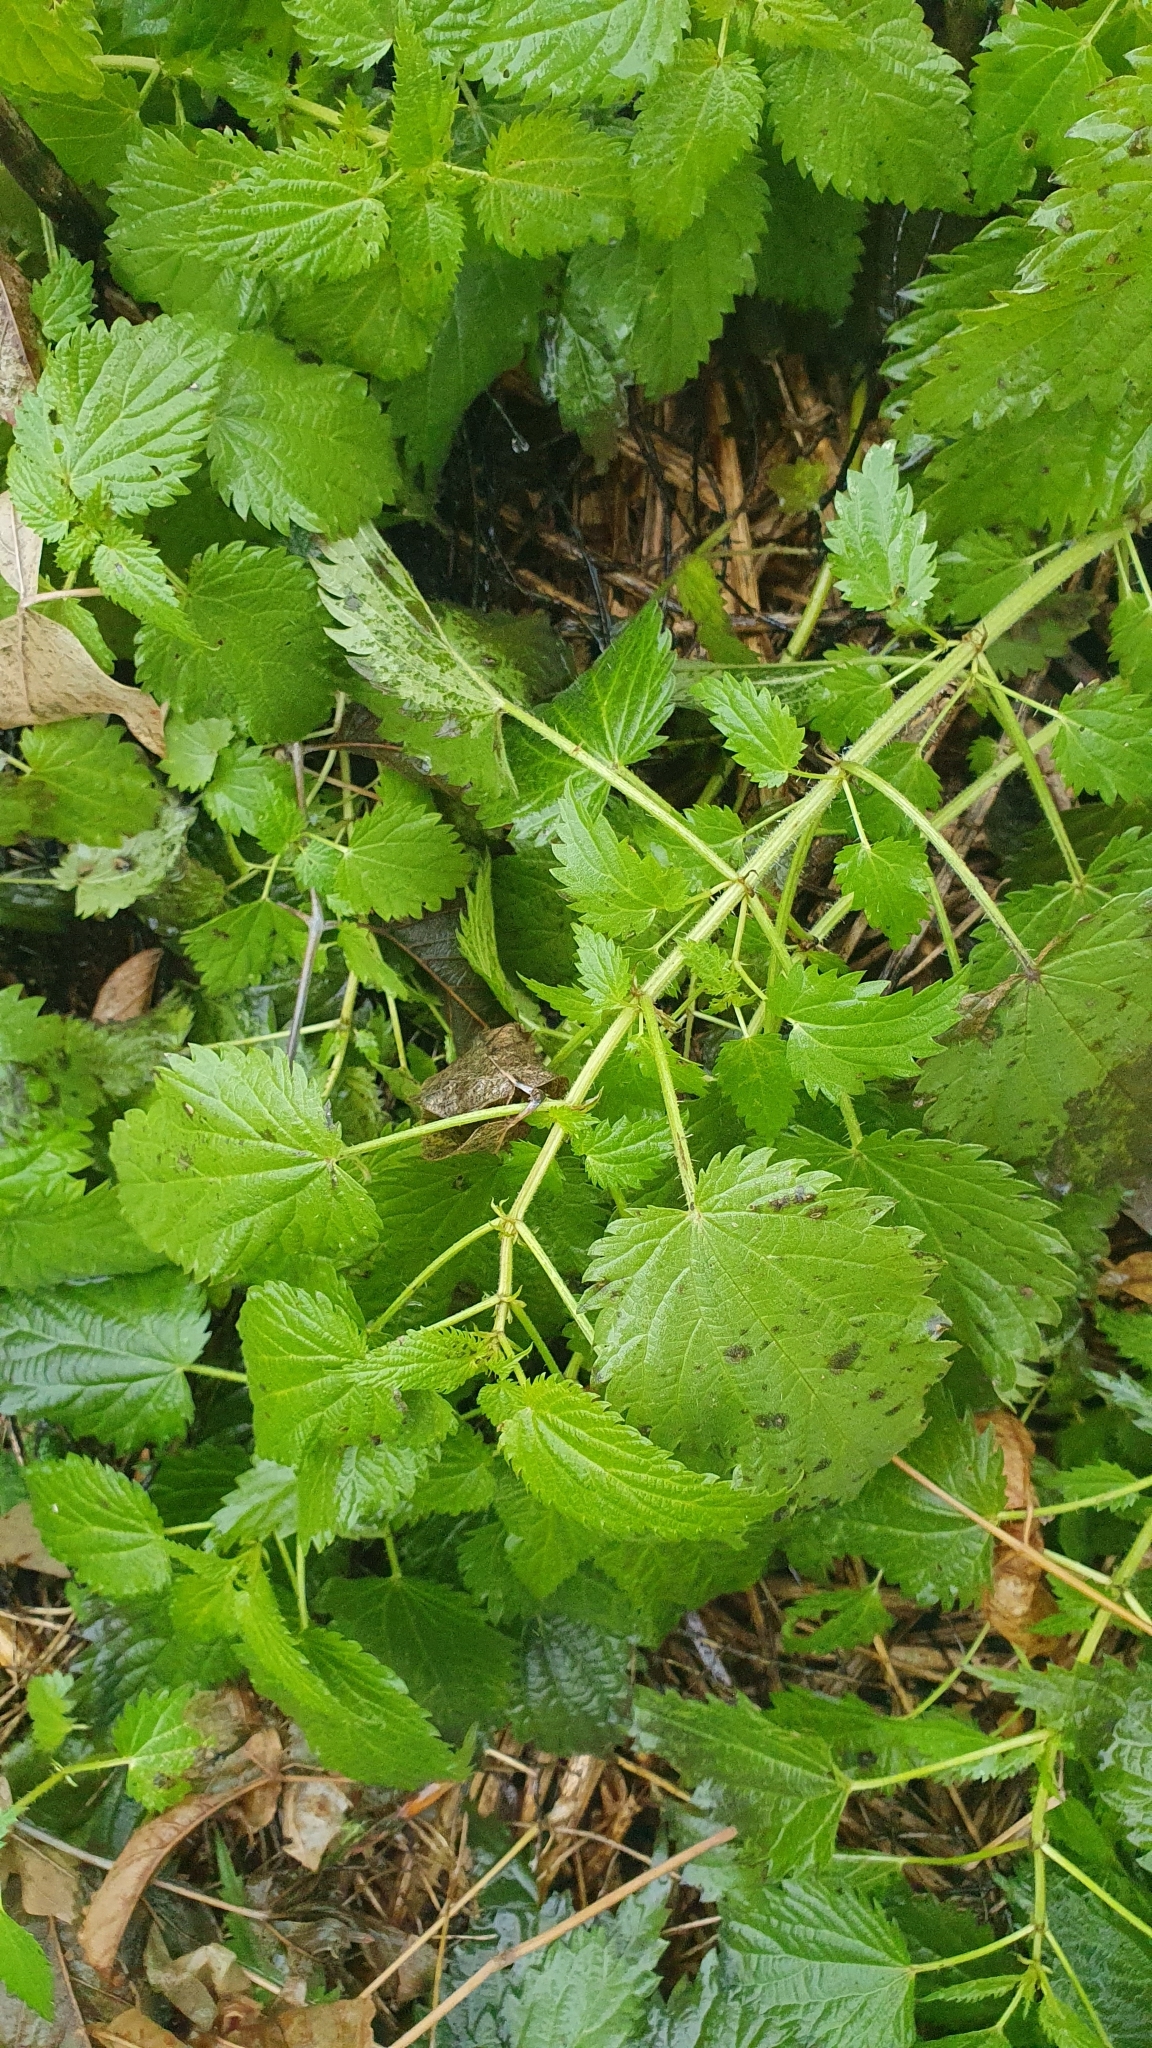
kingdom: Plantae
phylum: Tracheophyta
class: Magnoliopsida
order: Rosales
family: Urticaceae
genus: Urtica
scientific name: Urtica dioica
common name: Common nettle
